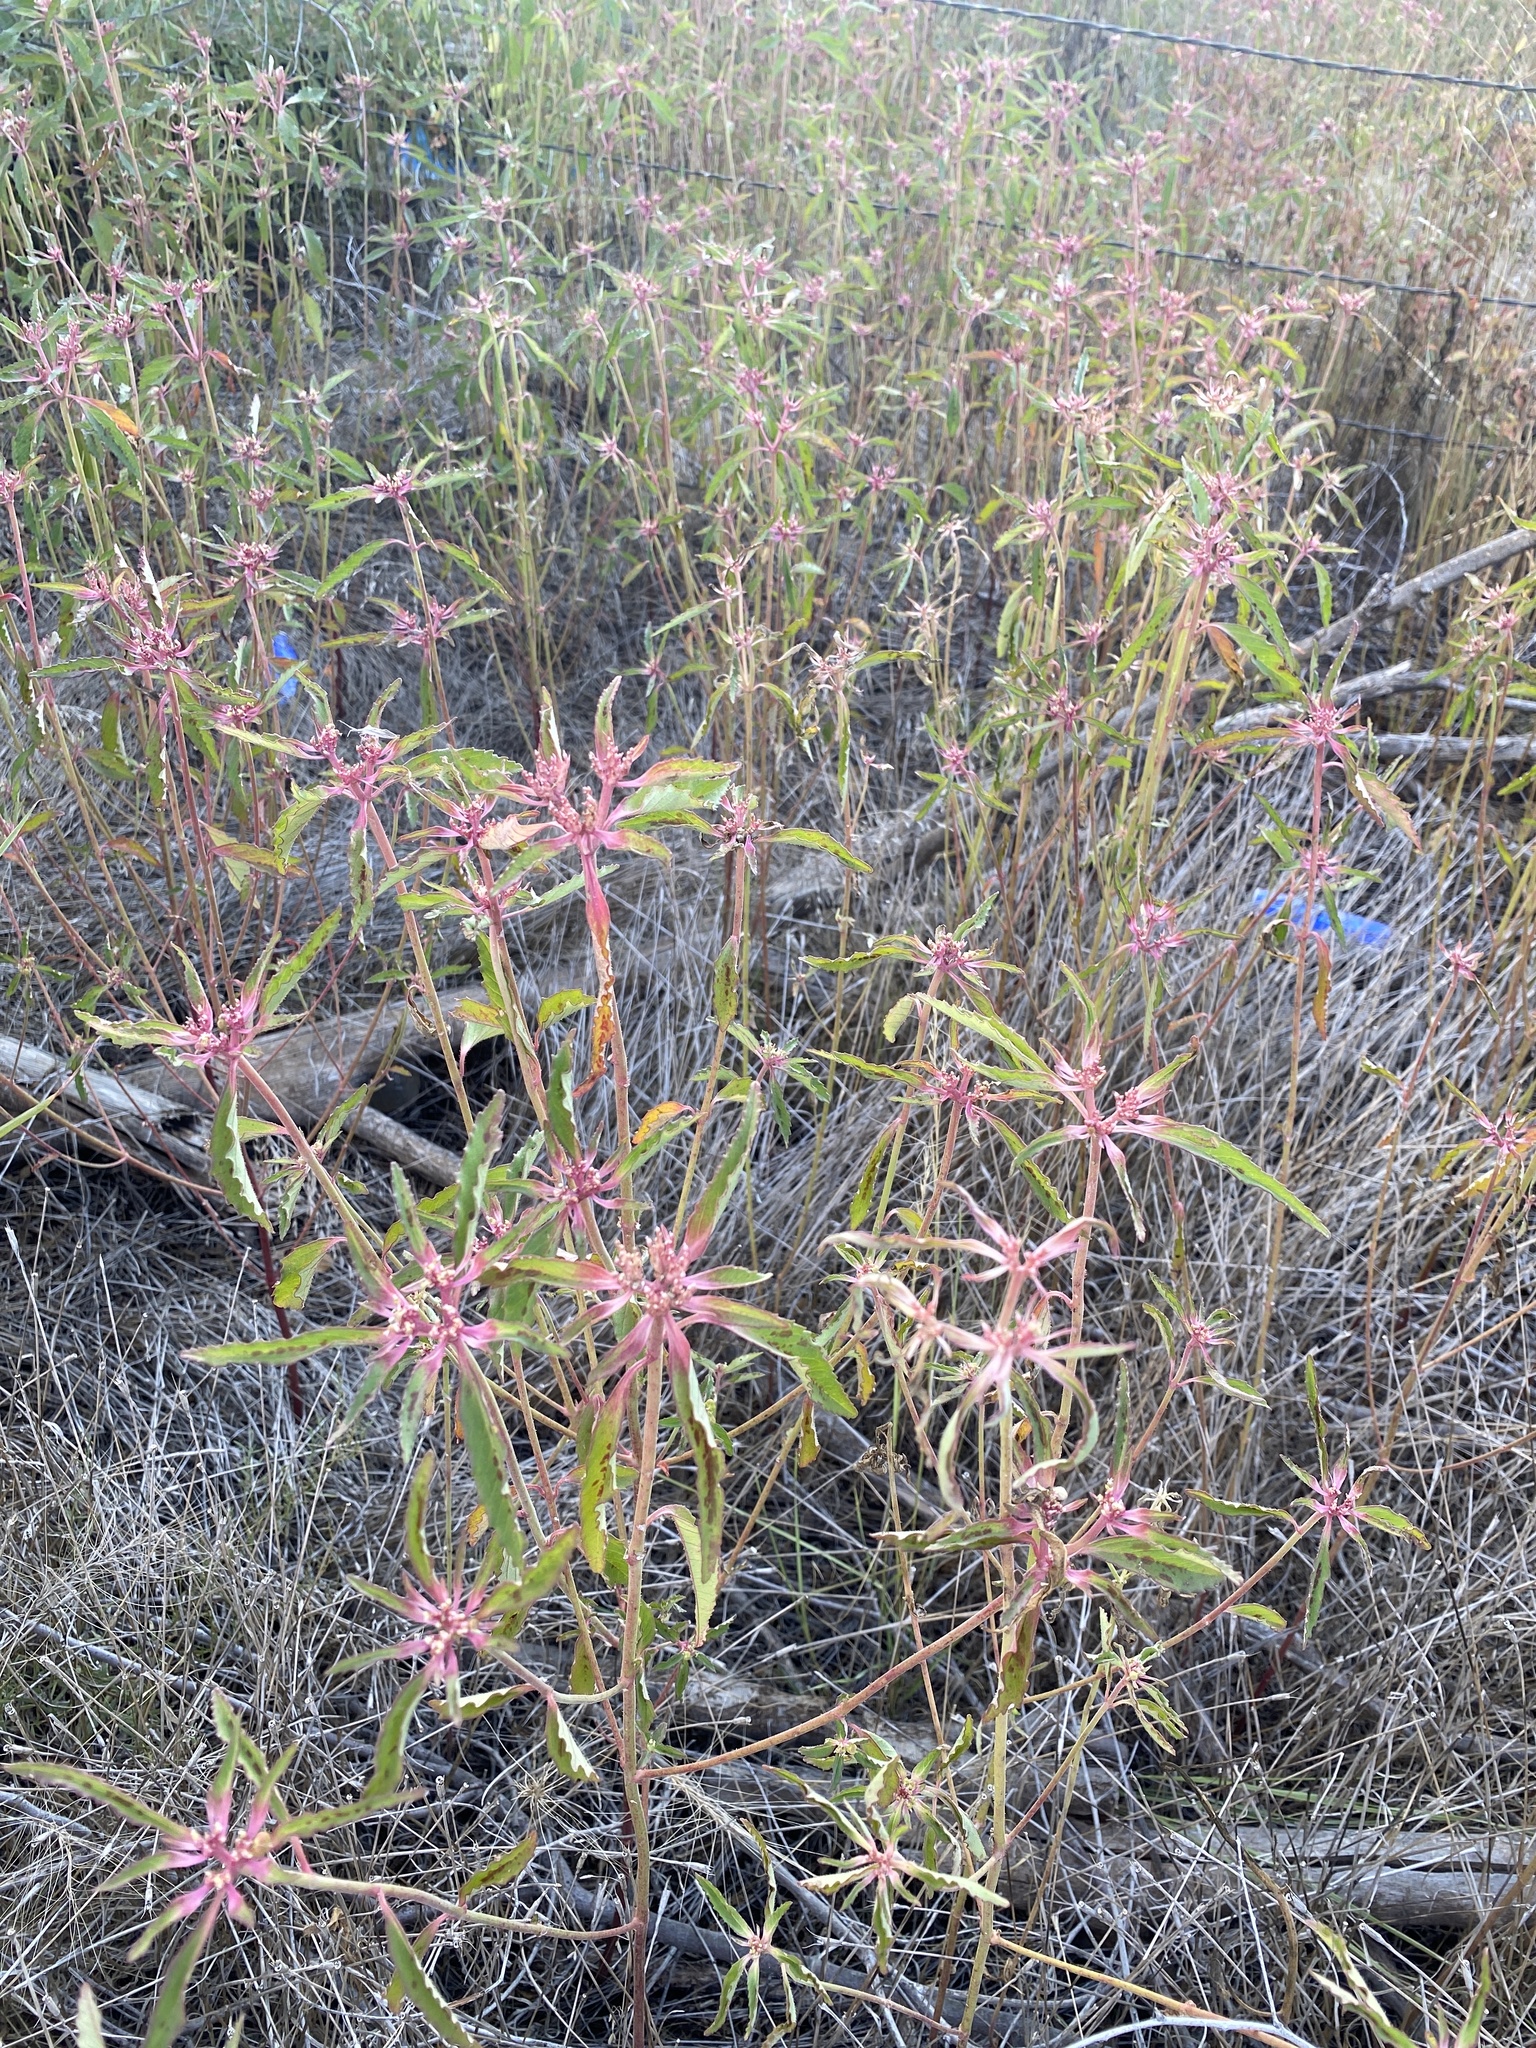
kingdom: Plantae
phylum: Tracheophyta
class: Magnoliopsida
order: Malpighiales
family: Euphorbiaceae
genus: Euphorbia
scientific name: Euphorbia davidii
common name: David's spurge
